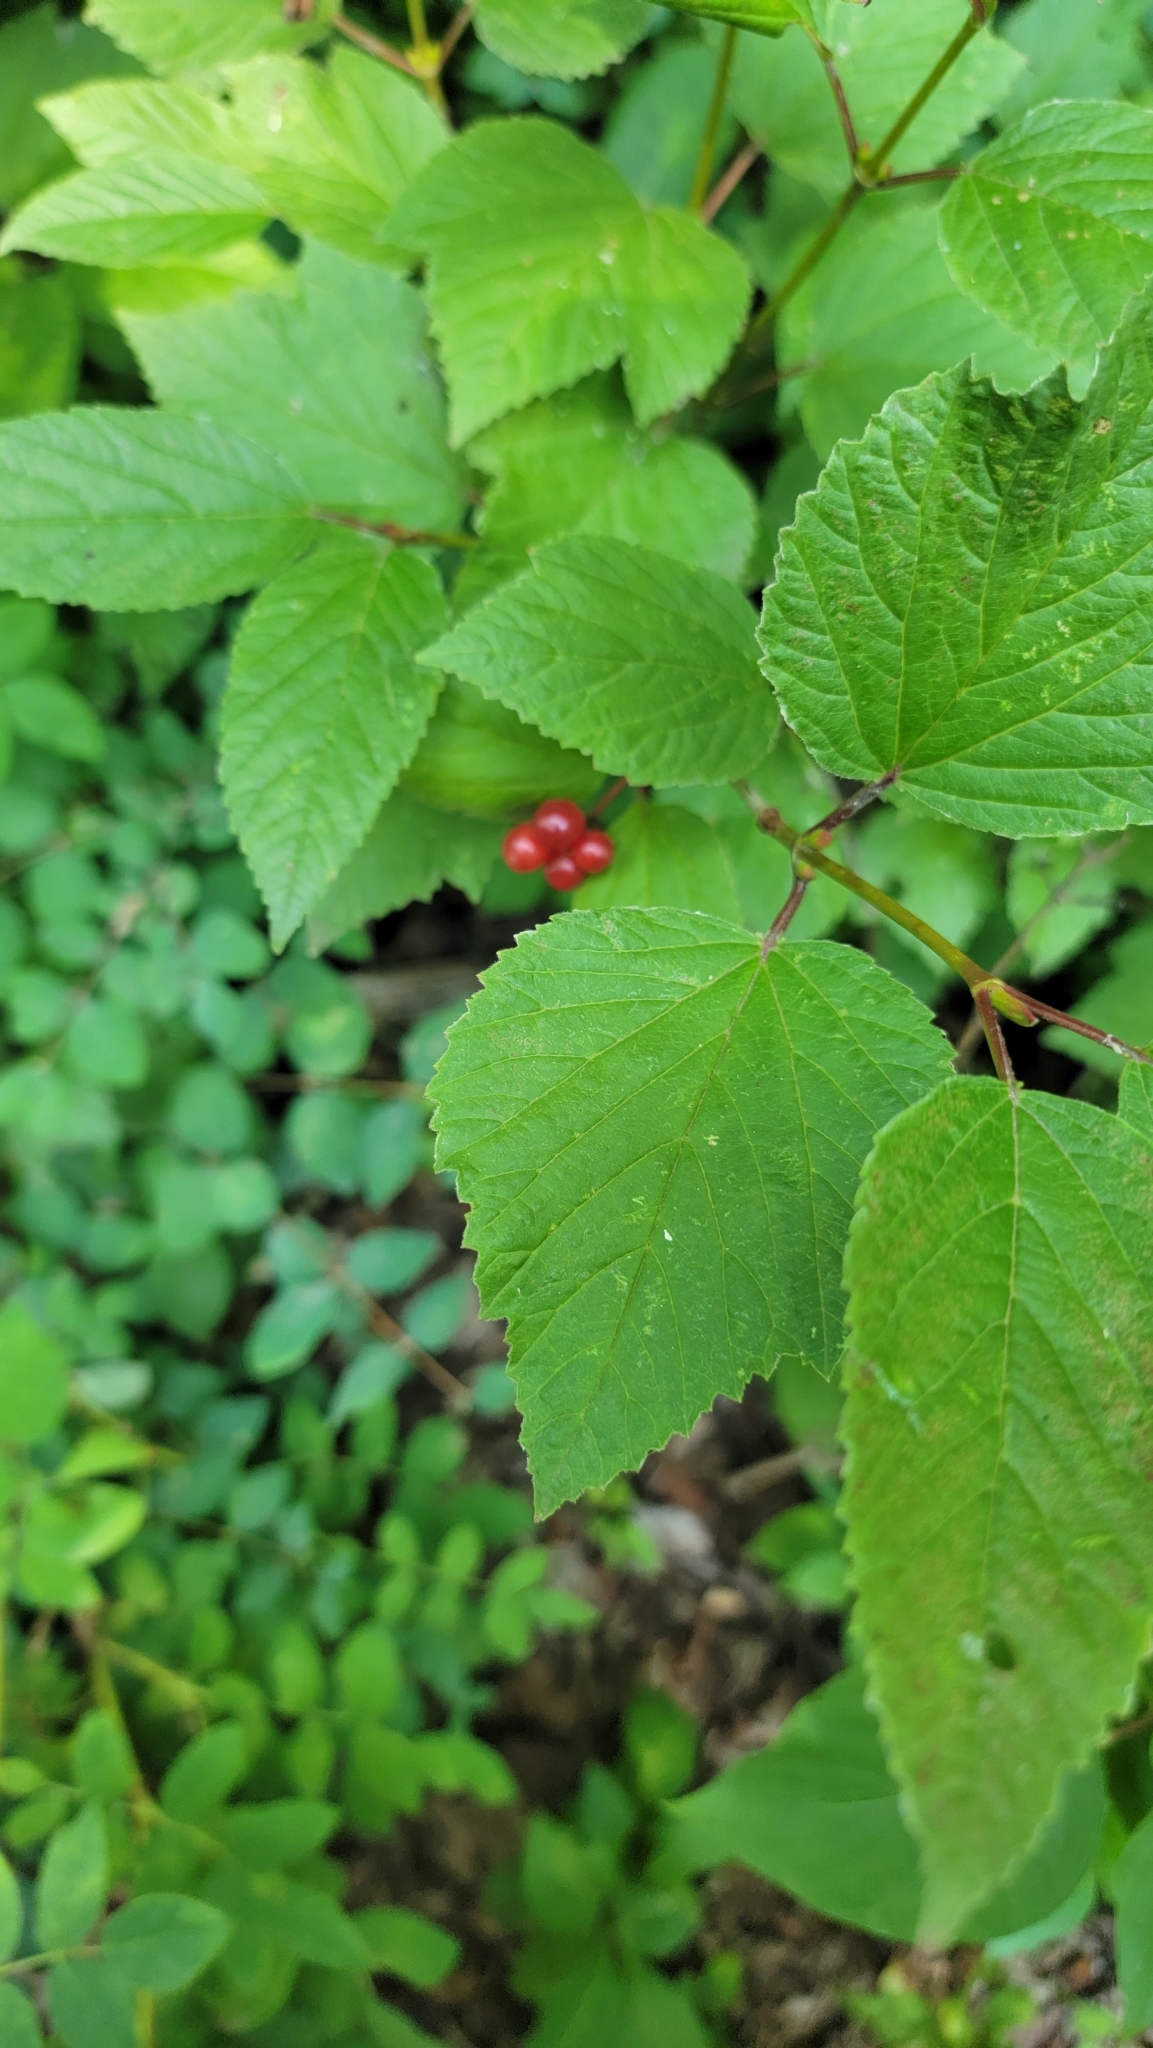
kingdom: Plantae
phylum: Tracheophyta
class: Magnoliopsida
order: Dipsacales
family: Viburnaceae
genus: Viburnum
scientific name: Viburnum edule
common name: Mooseberry
